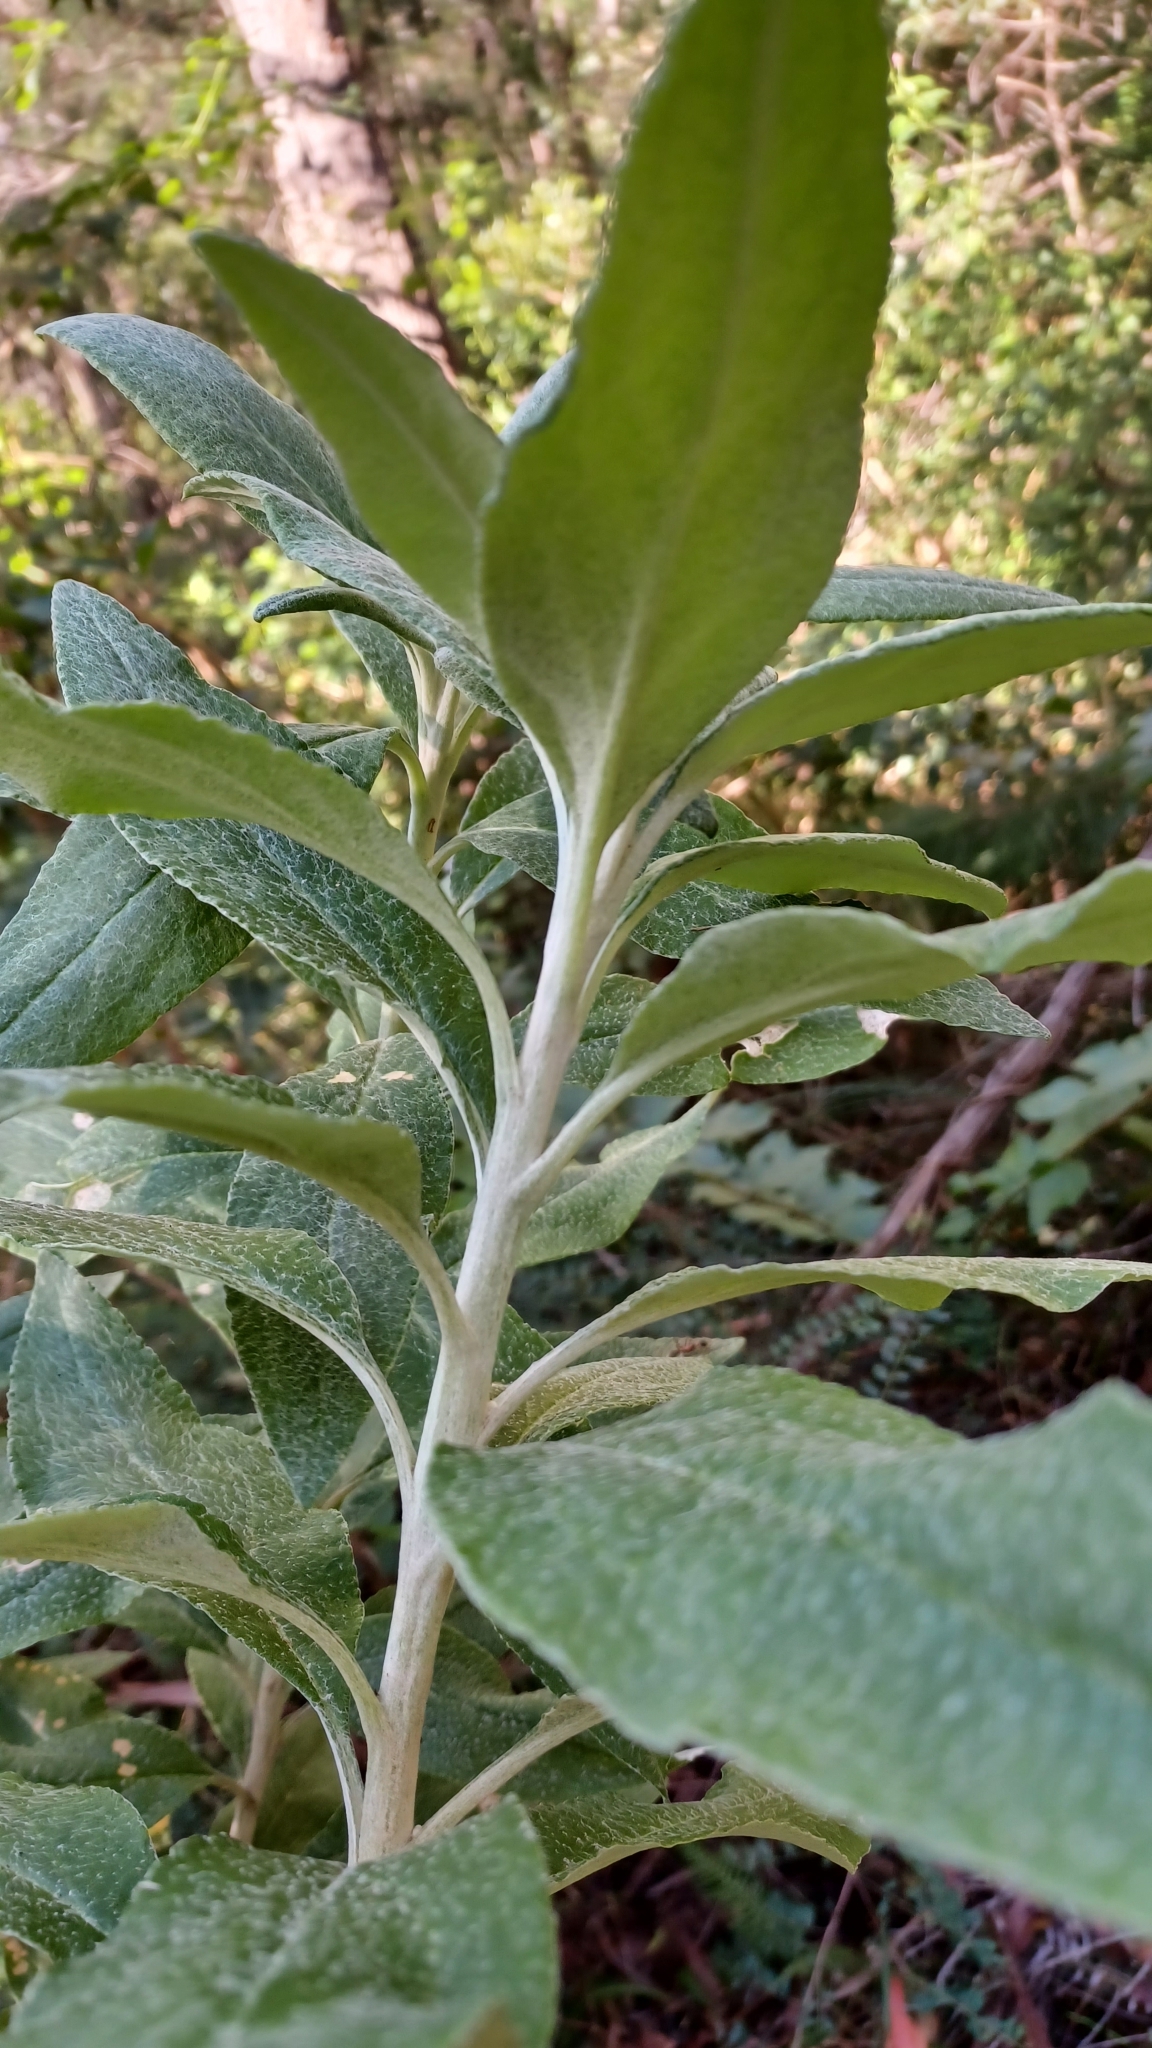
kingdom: Plantae
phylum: Tracheophyta
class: Magnoliopsida
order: Asterales
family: Asteraceae
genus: Leucozoma
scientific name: Leucozoma elatum
